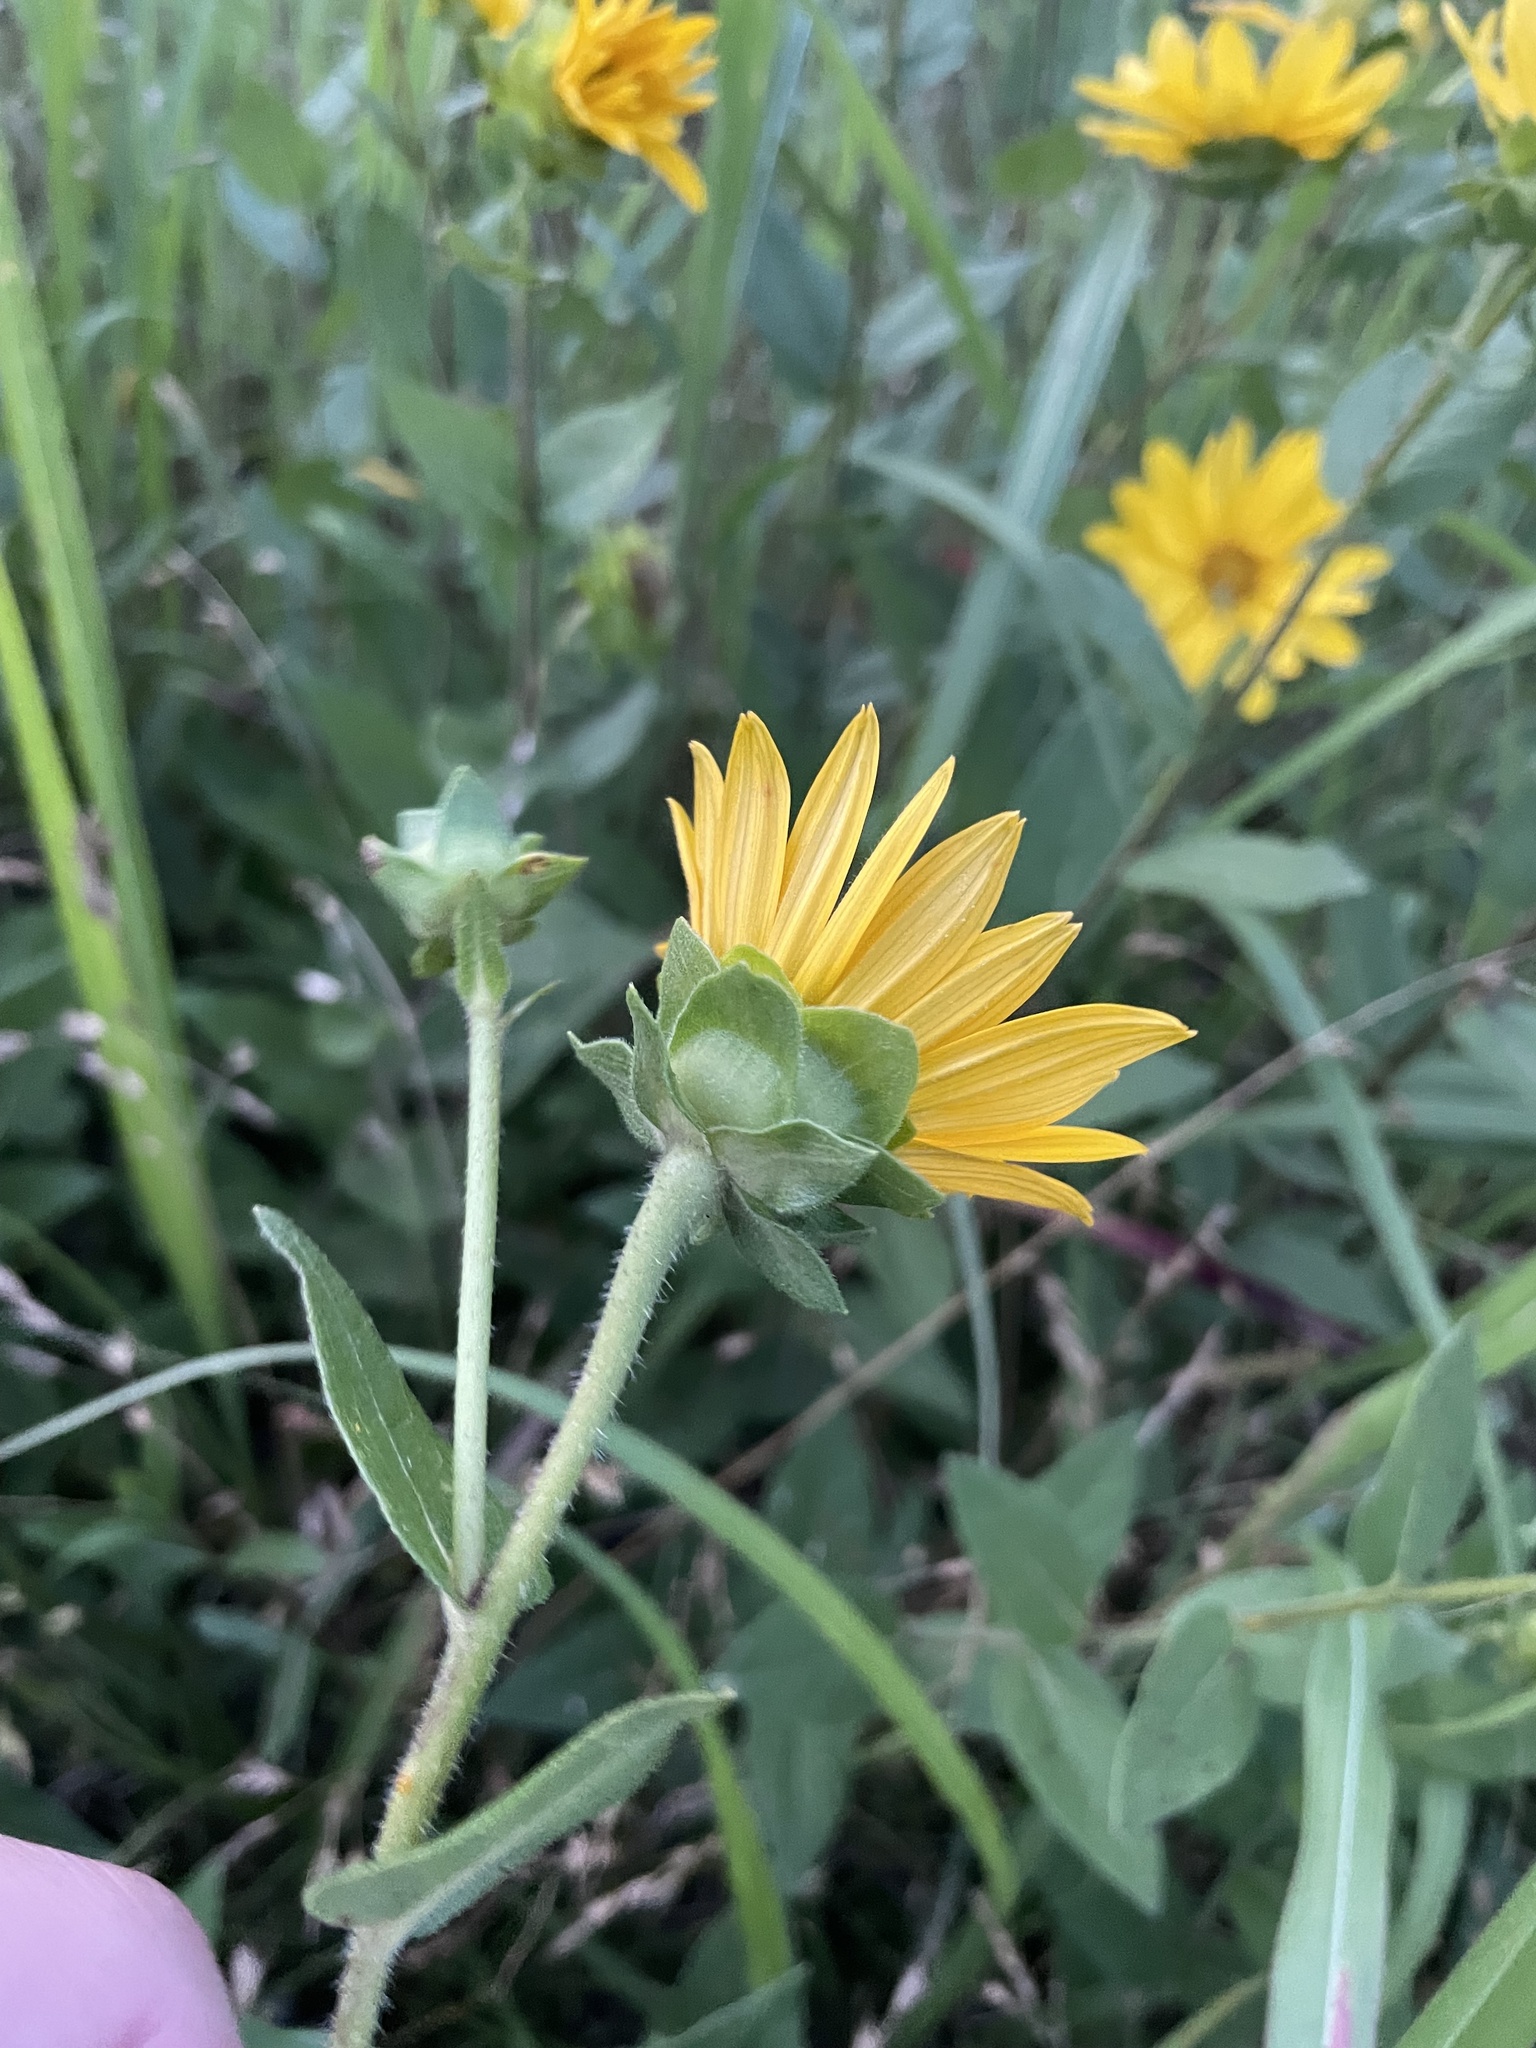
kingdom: Plantae
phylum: Tracheophyta
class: Magnoliopsida
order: Asterales
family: Asteraceae
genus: Silphium
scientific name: Silphium radula
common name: Roughleaf rosinweed
